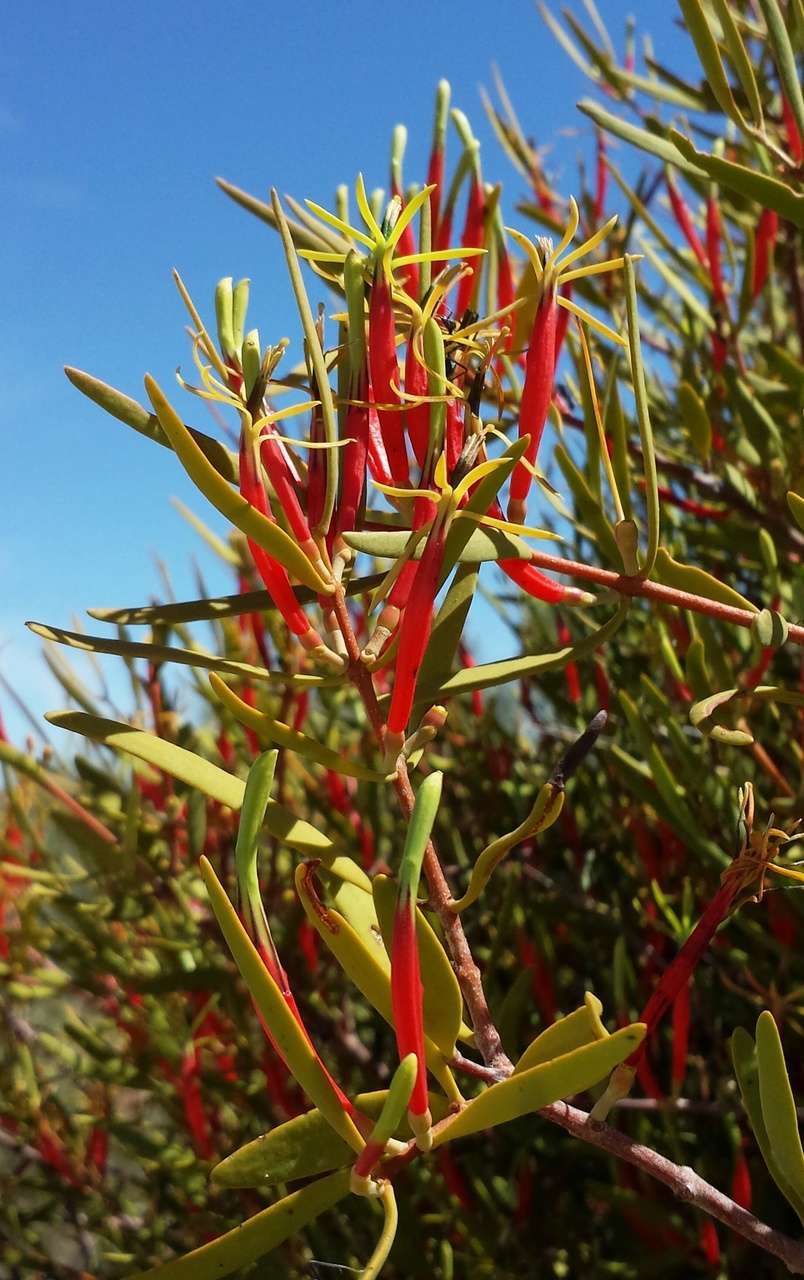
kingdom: Plantae
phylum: Tracheophyta
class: Magnoliopsida
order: Santalales
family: Loranthaceae
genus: Lysiana
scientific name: Lysiana exocarpi
